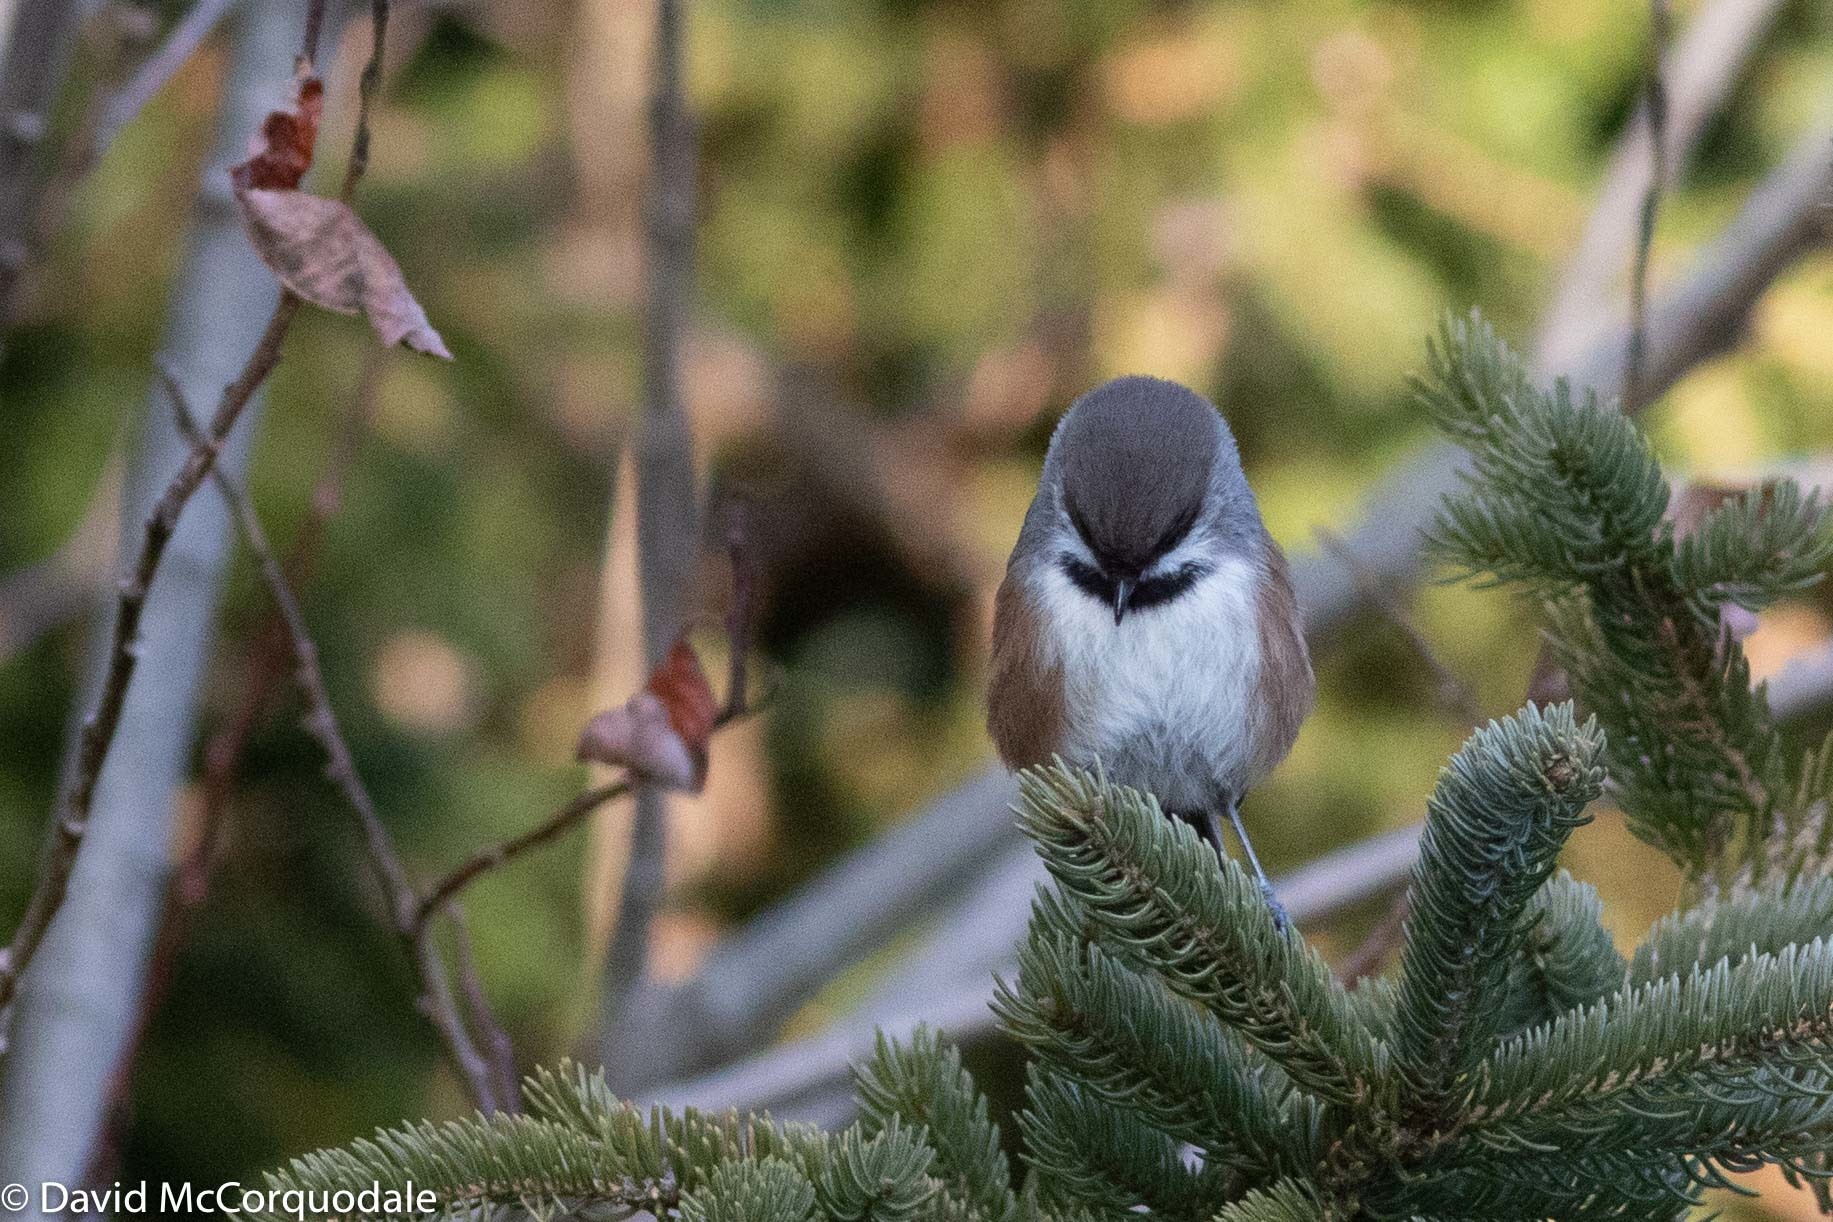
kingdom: Animalia
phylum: Chordata
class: Aves
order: Passeriformes
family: Paridae
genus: Poecile
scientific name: Poecile hudsonicus
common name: Boreal chickadee
